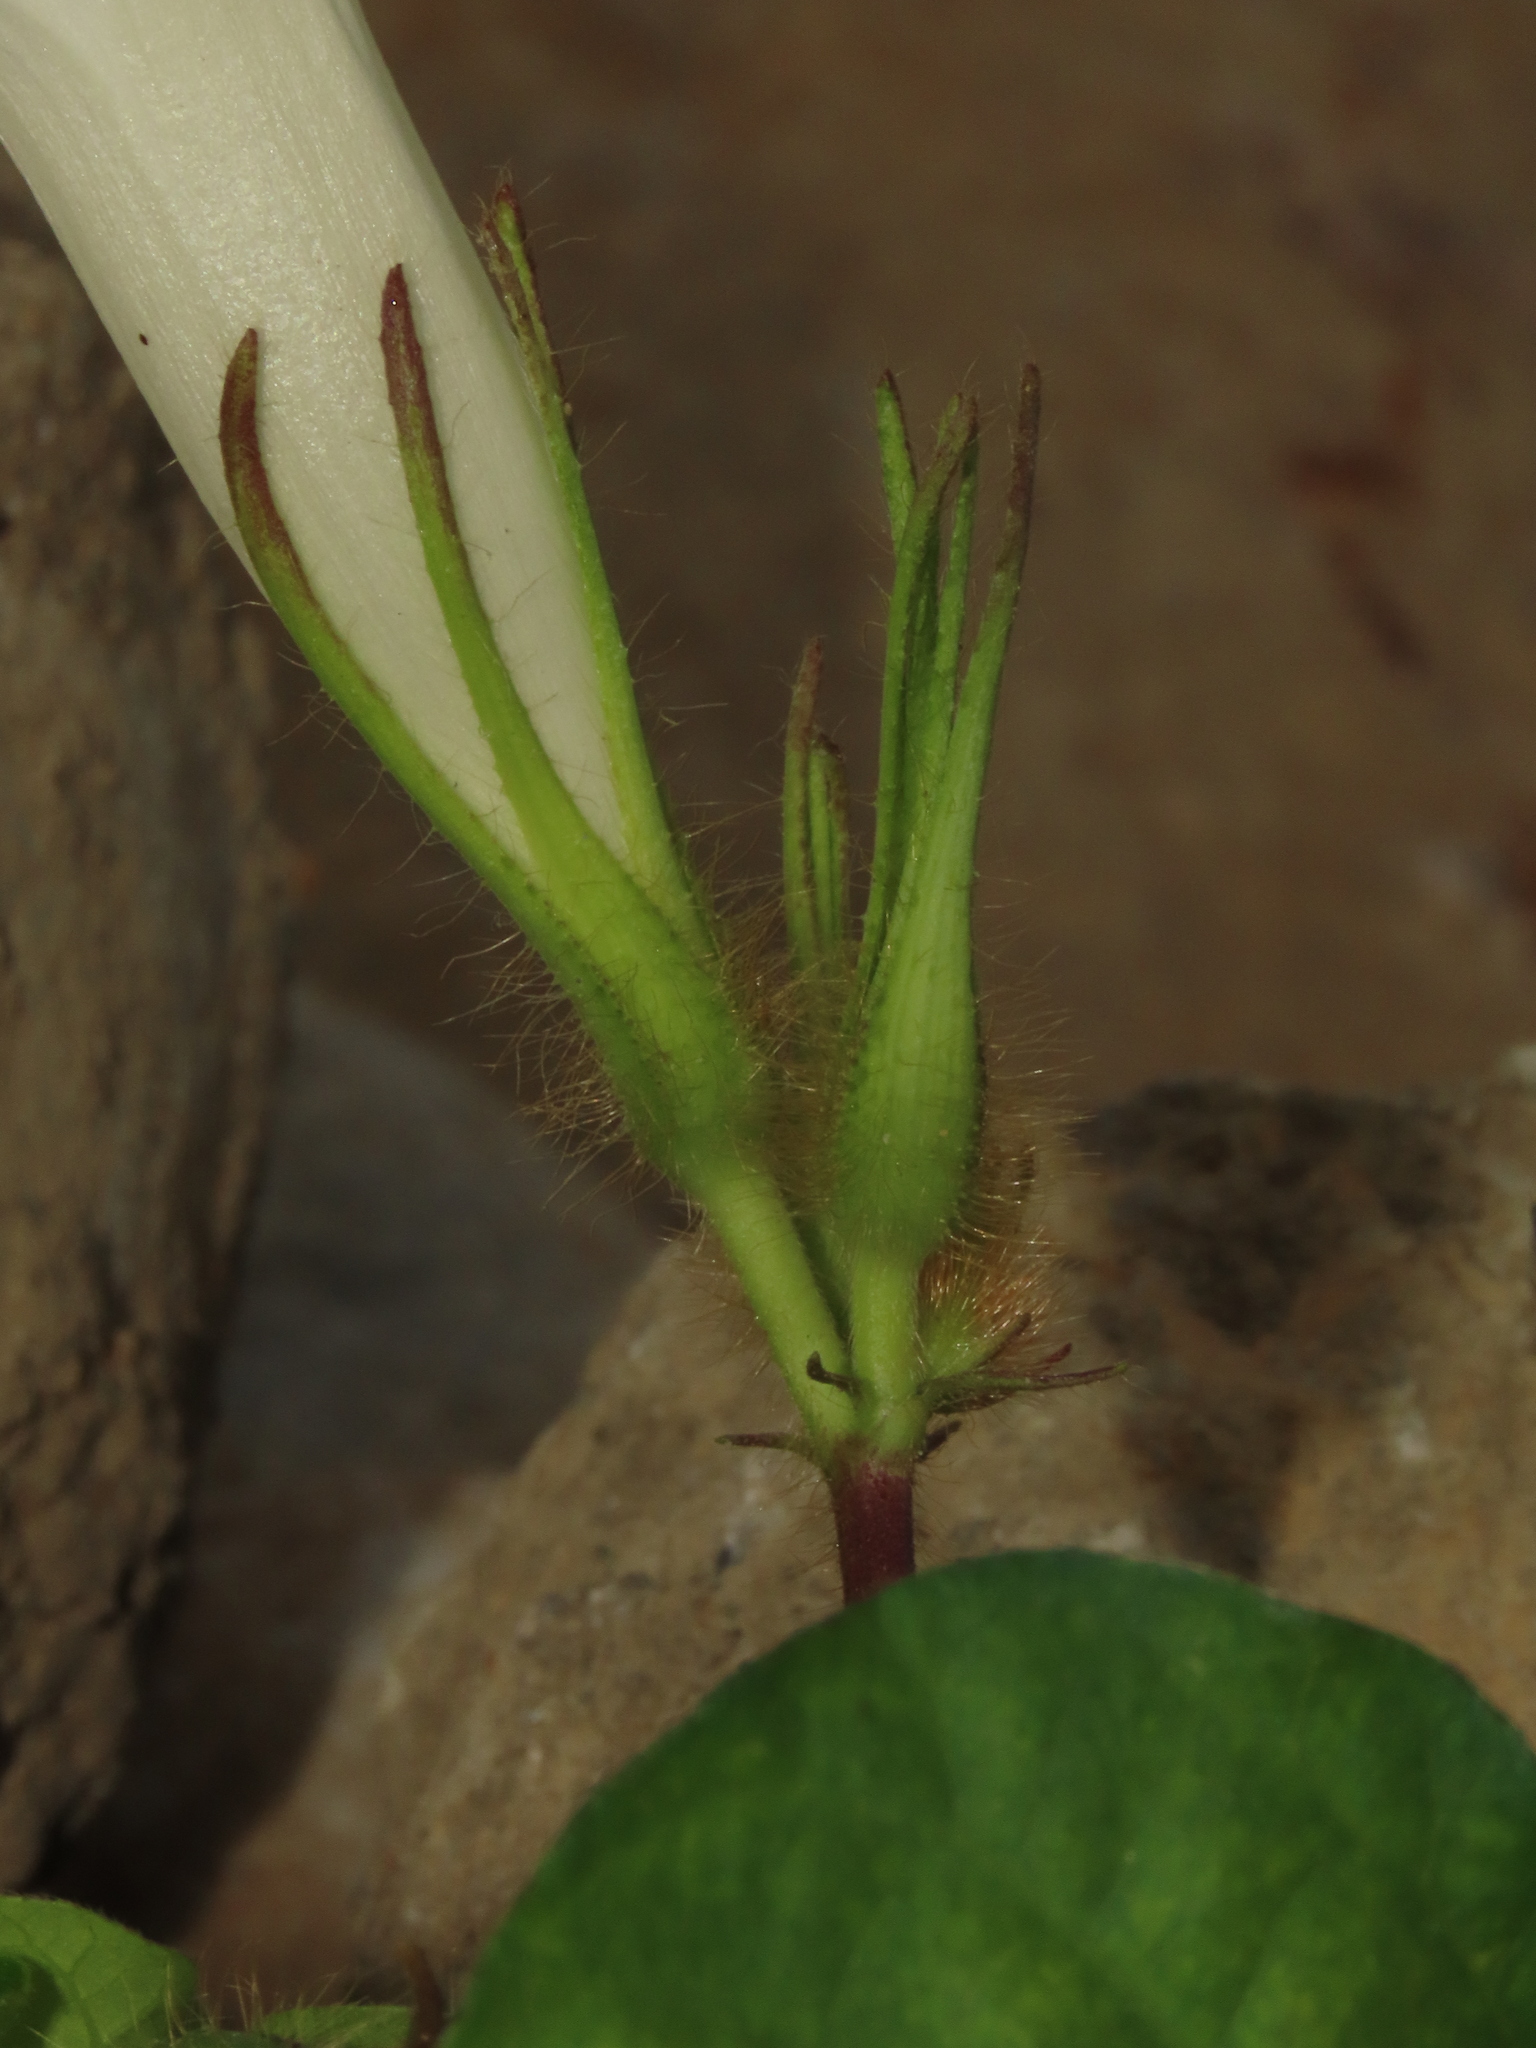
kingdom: Plantae
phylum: Tracheophyta
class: Magnoliopsida
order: Solanales
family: Convolvulaceae
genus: Ipomoea
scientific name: Ipomoea nil
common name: Japanese morning-glory
